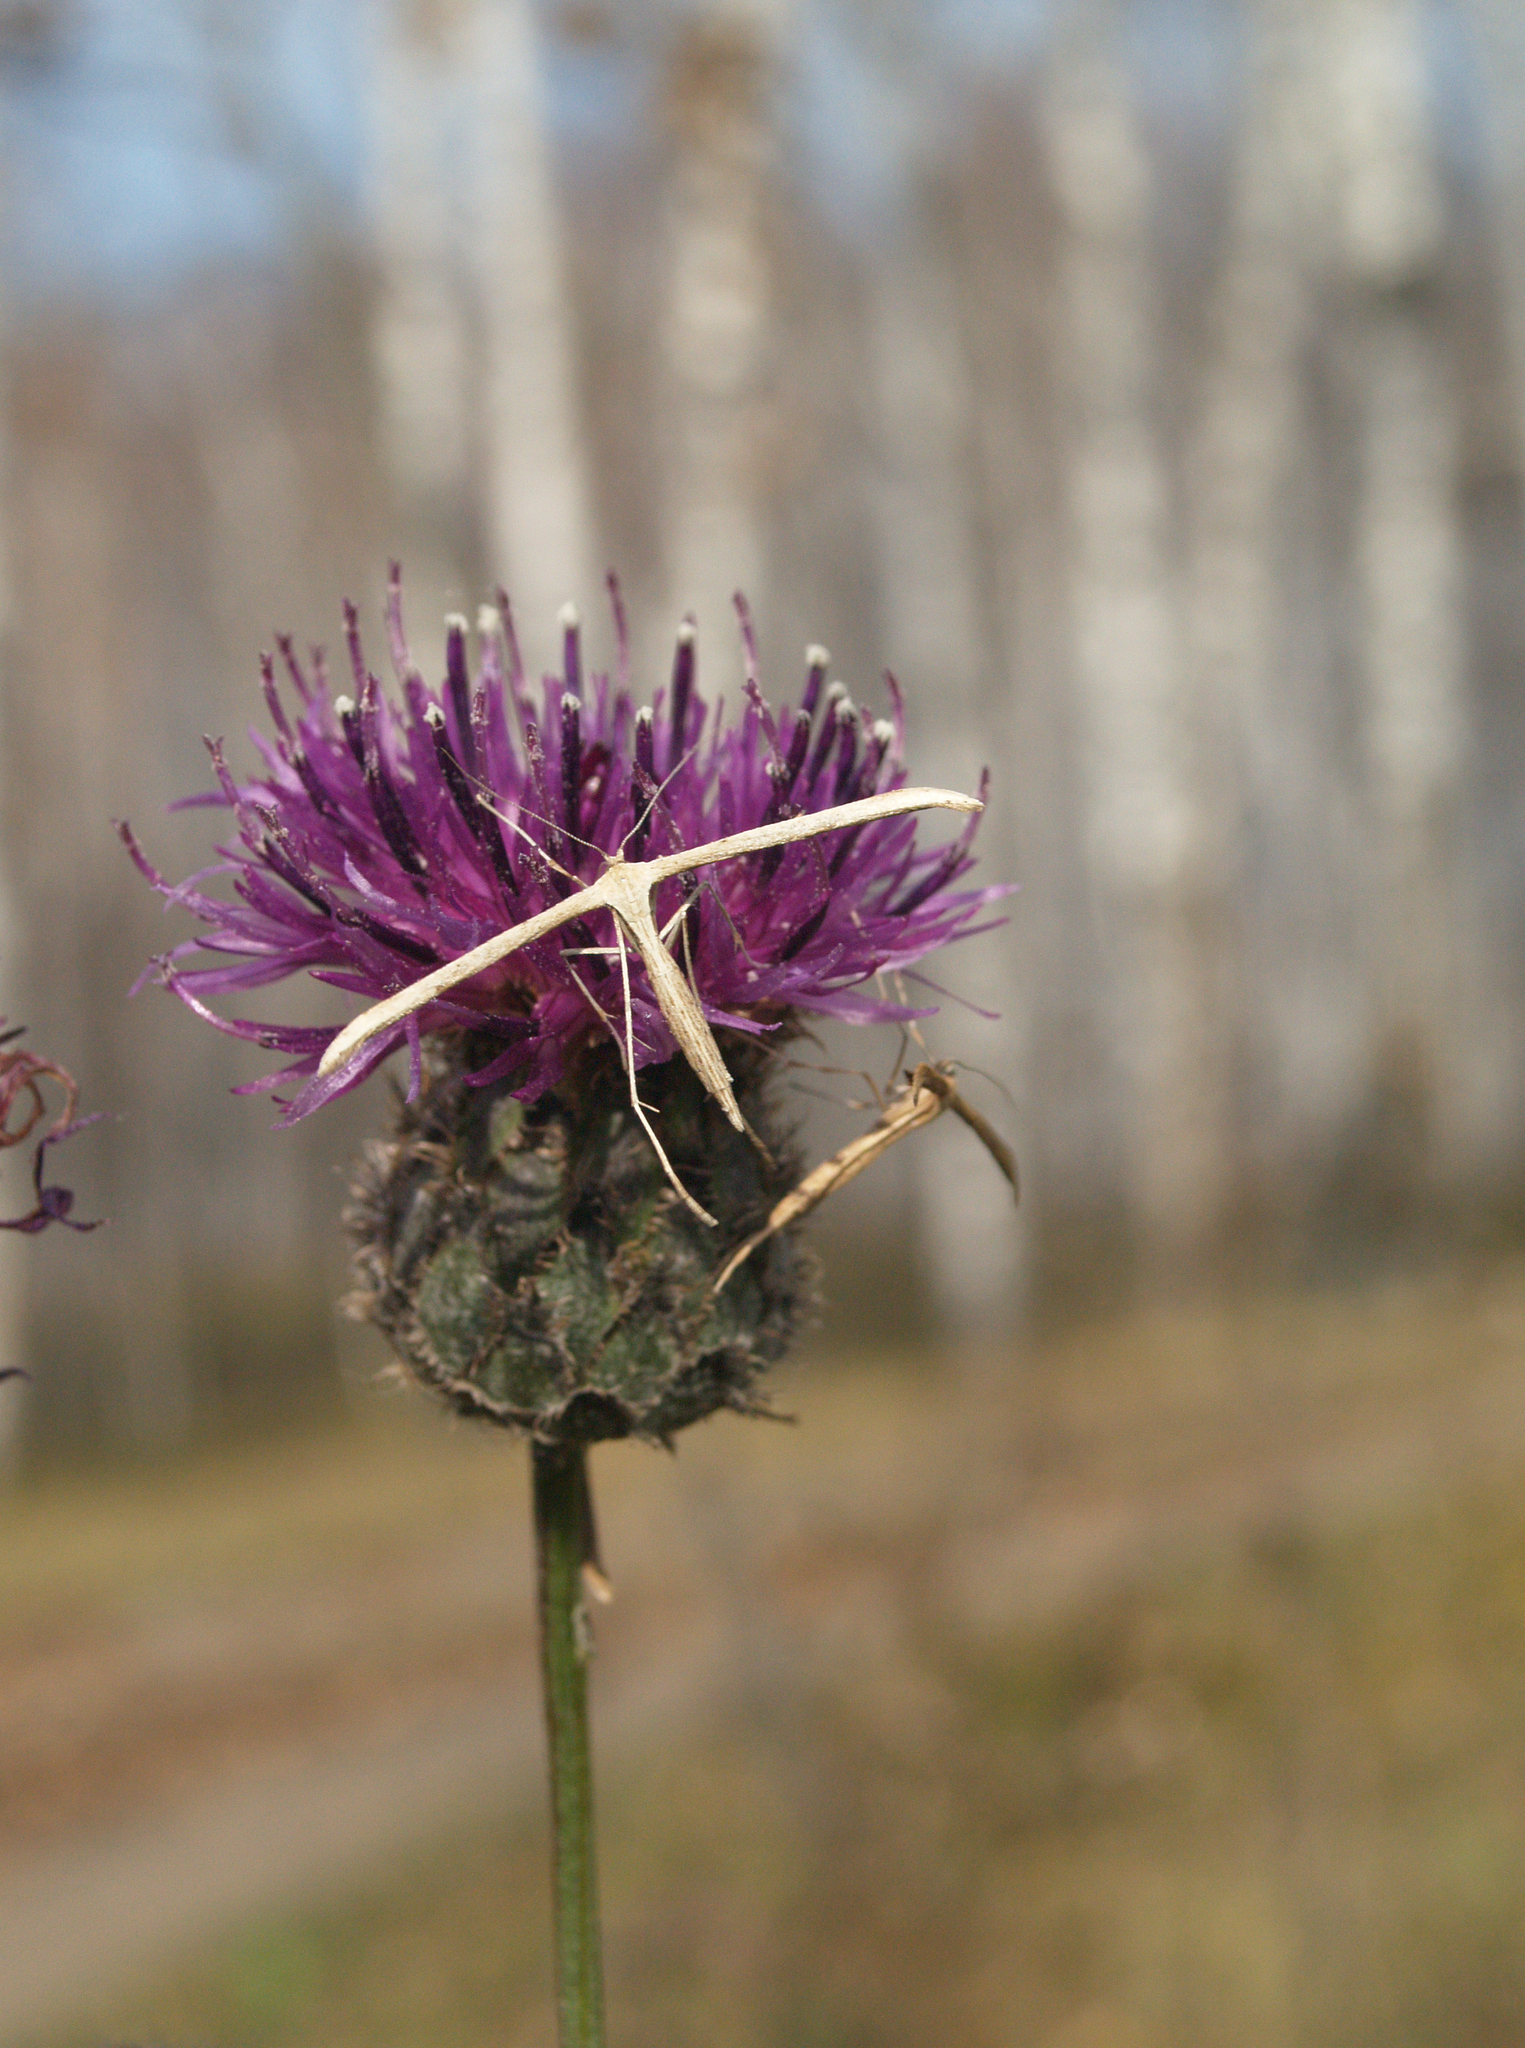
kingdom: Animalia
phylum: Arthropoda
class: Insecta
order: Lepidoptera
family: Pterophoridae
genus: Emmelina
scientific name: Emmelina monodactyla
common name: Common plume
